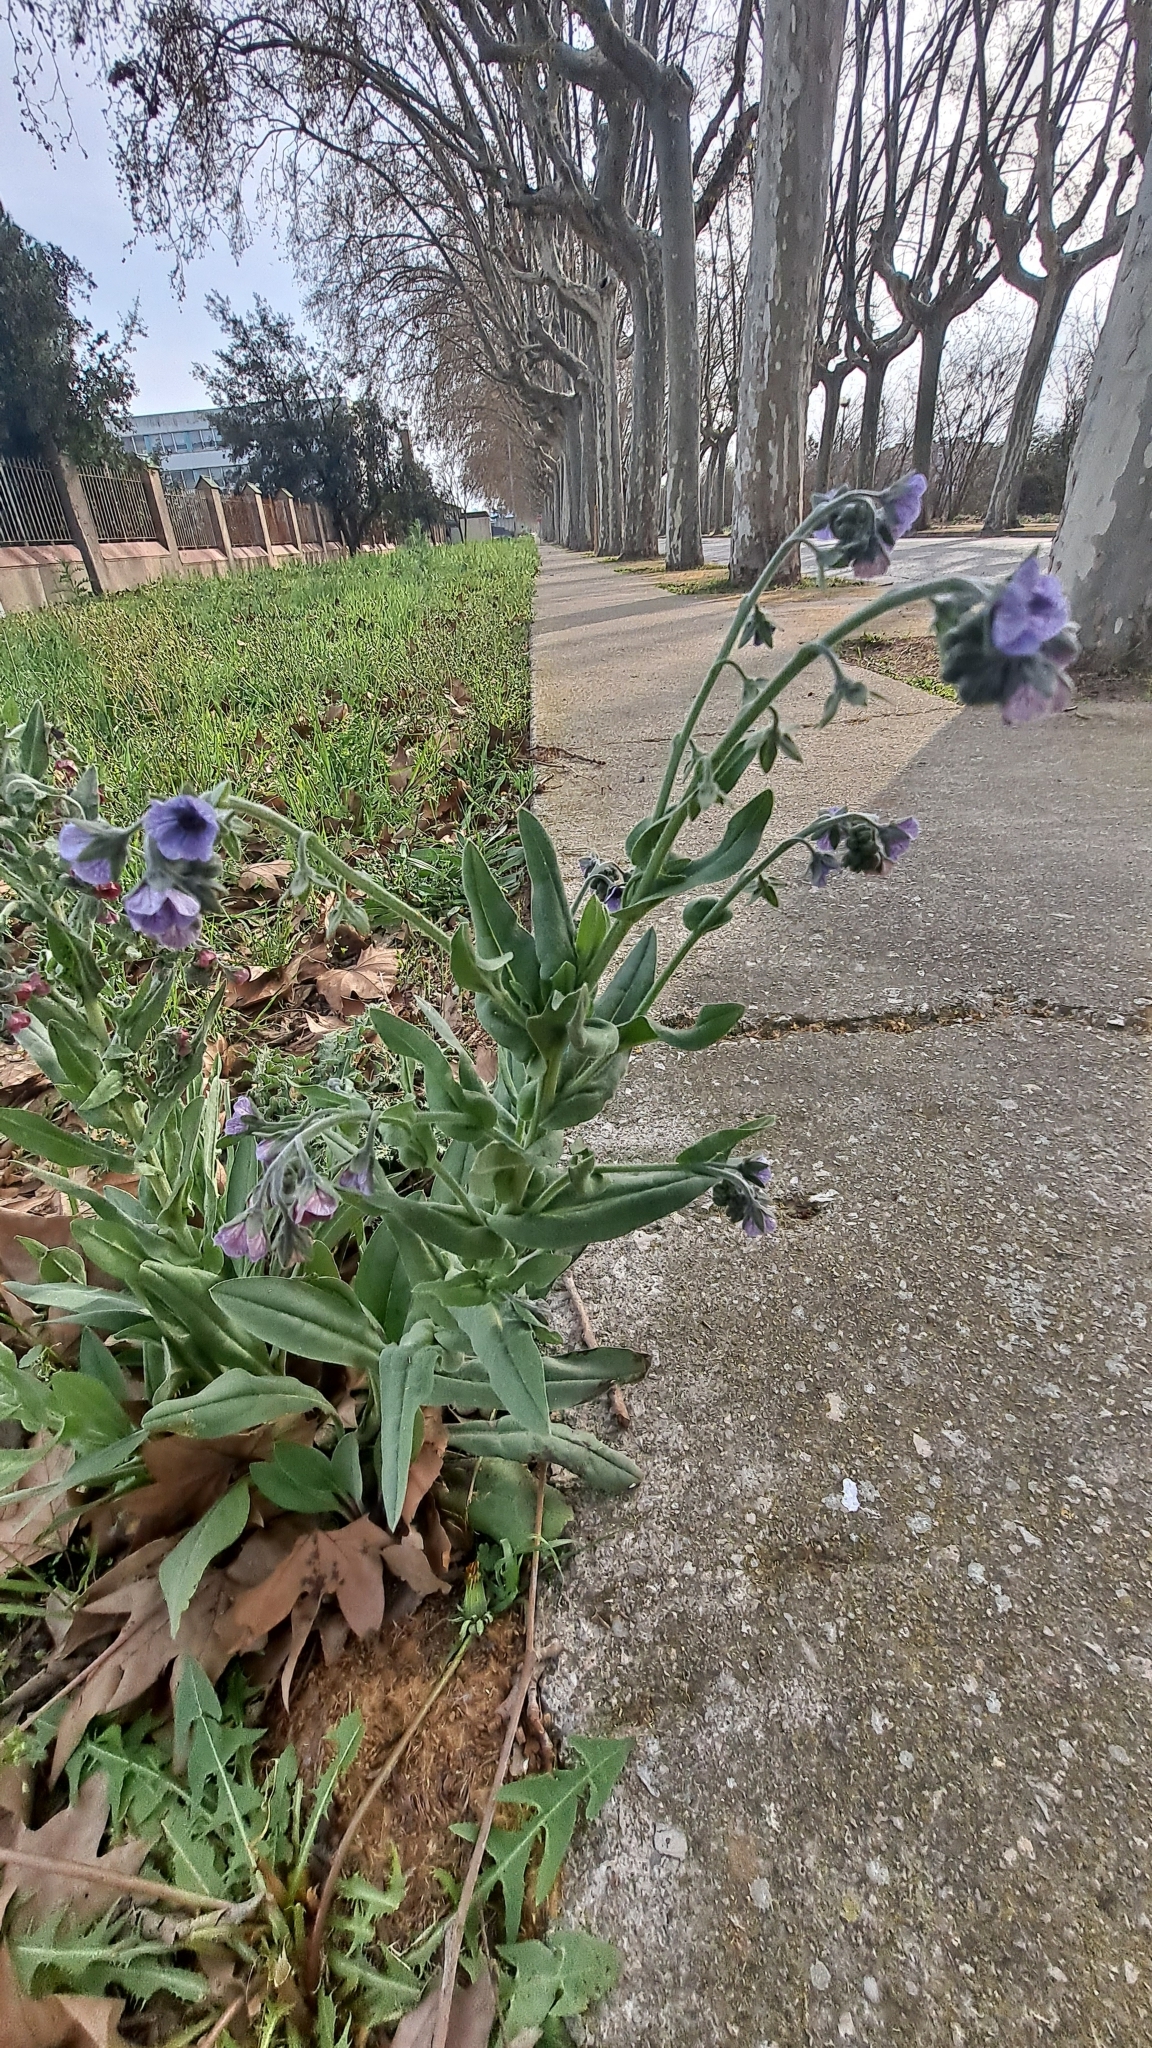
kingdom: Plantae
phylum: Tracheophyta
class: Magnoliopsida
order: Boraginales
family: Boraginaceae
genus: Cynoglossum
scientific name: Cynoglossum creticum
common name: Blue hound's tongue
